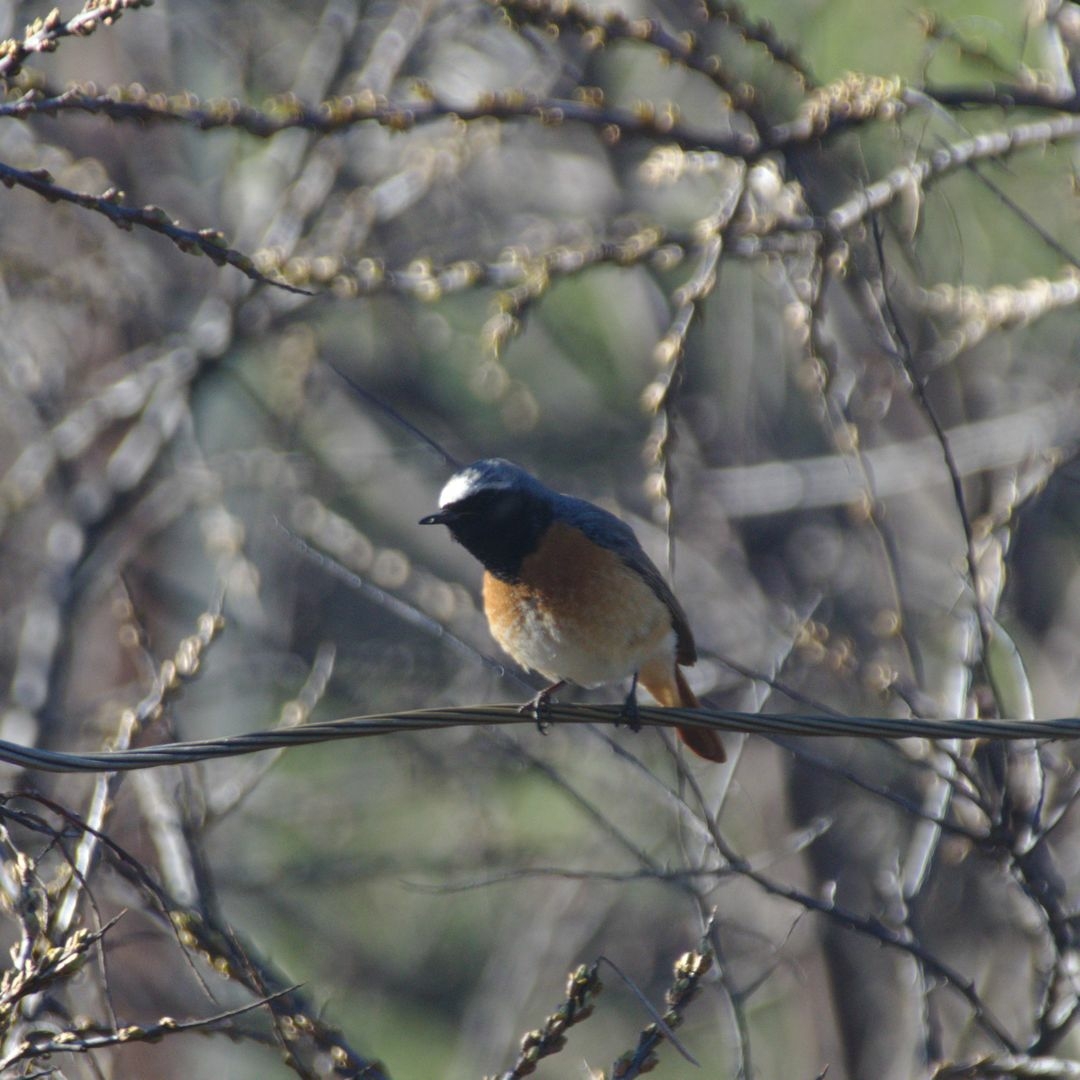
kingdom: Animalia
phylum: Chordata
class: Aves
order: Passeriformes
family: Muscicapidae
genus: Phoenicurus
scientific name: Phoenicurus phoenicurus
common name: Common redstart
